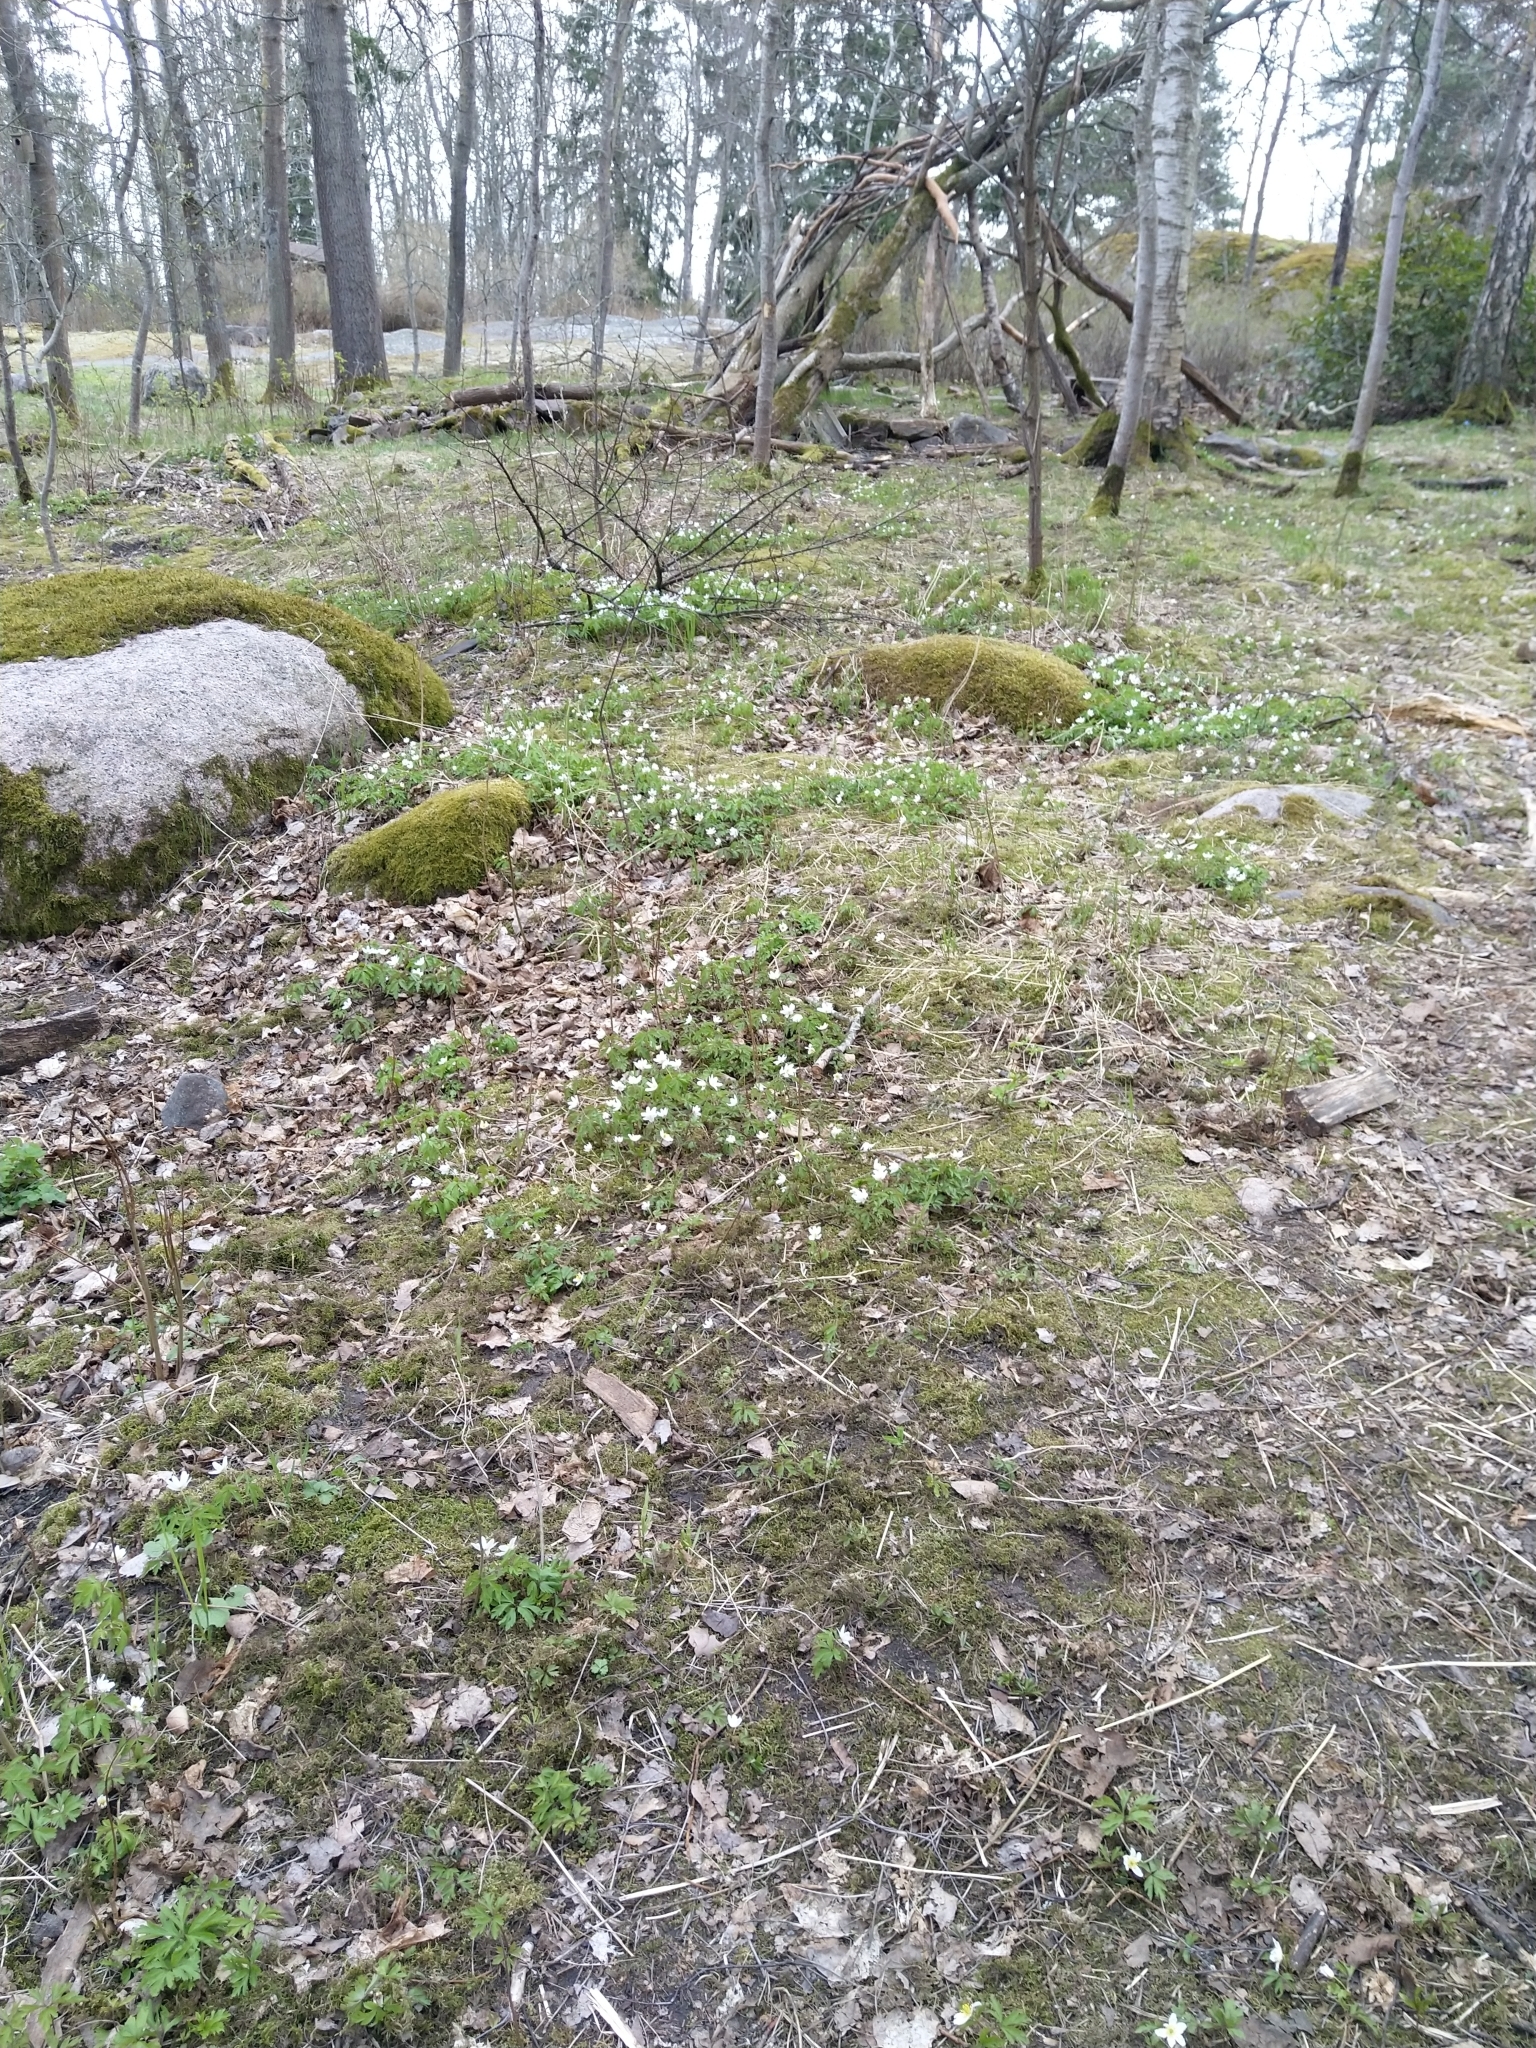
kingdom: Plantae
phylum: Tracheophyta
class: Magnoliopsida
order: Ranunculales
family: Ranunculaceae
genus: Anemone
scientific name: Anemone nemorosa
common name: Wood anemone
